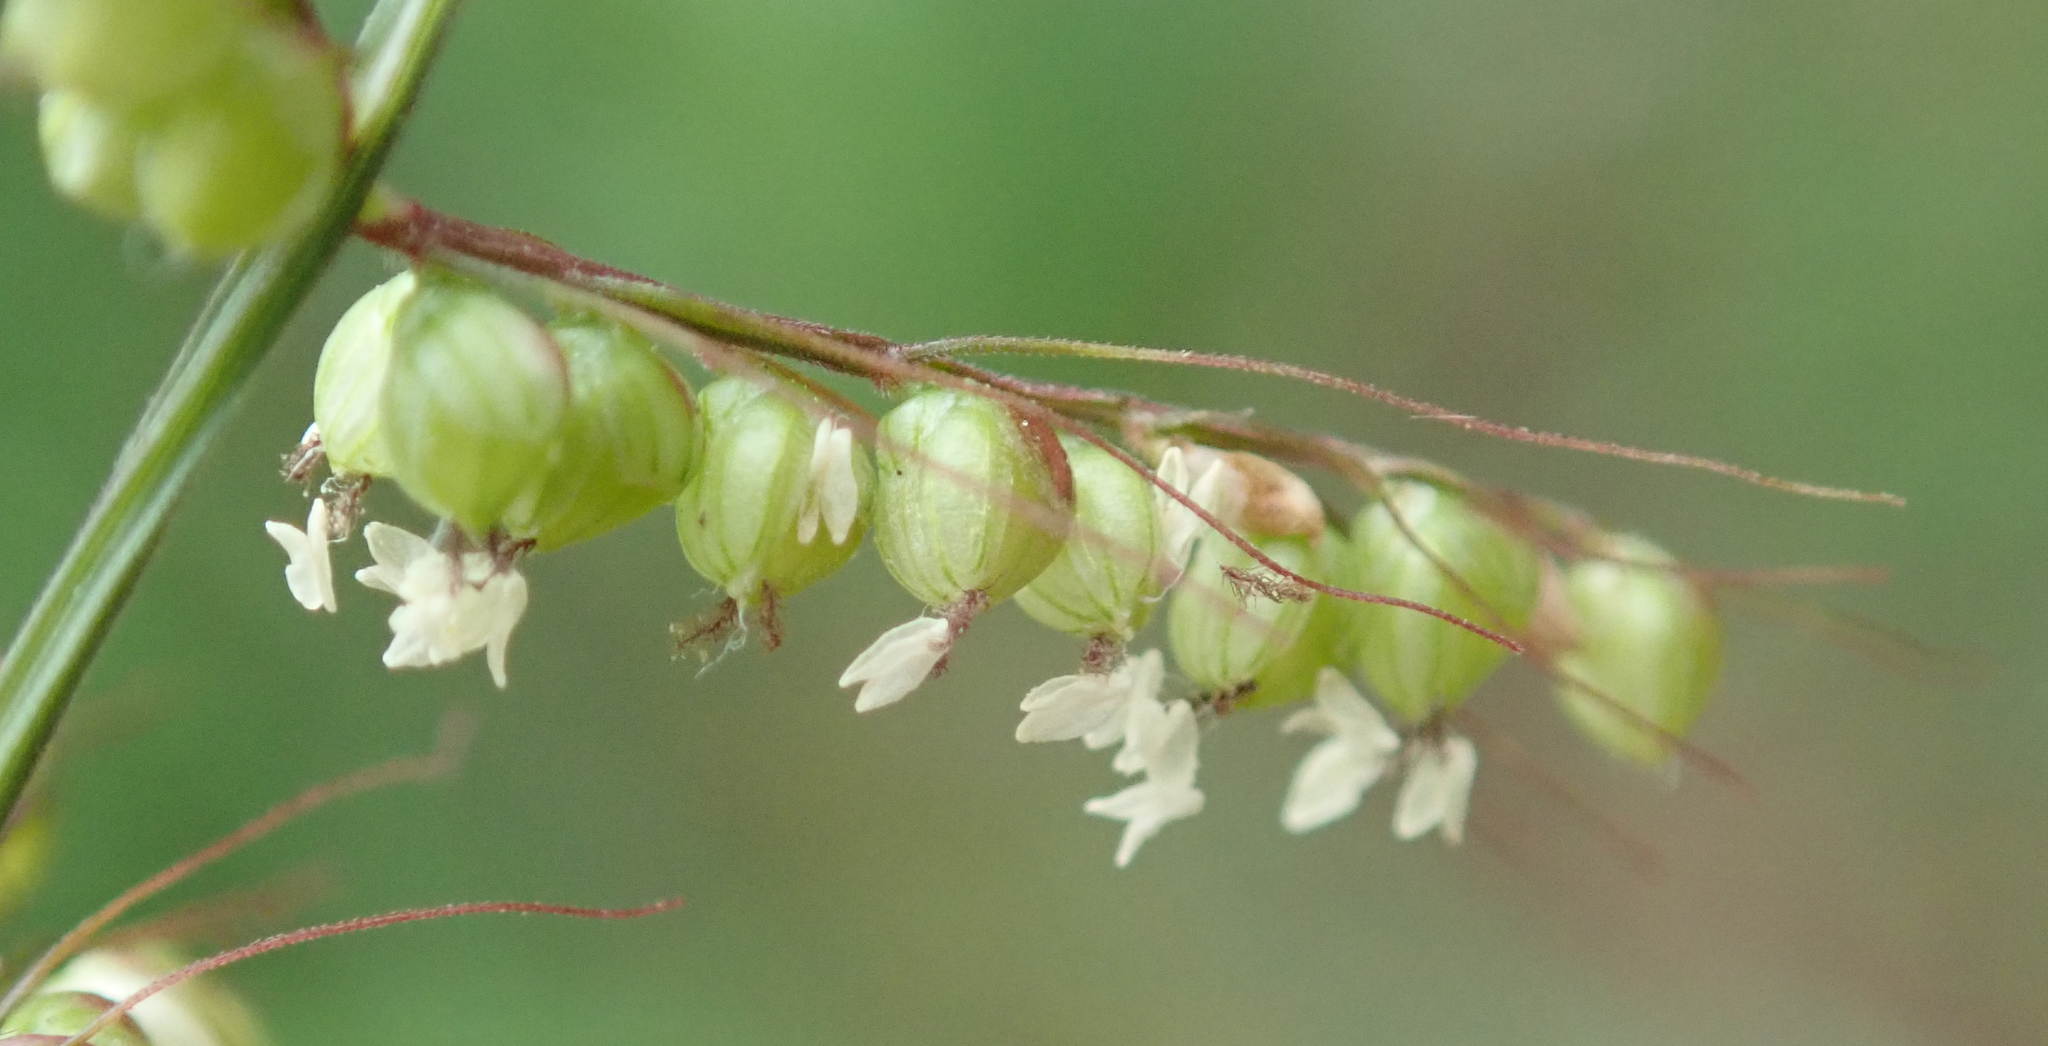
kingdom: Plantae
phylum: Tracheophyta
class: Liliopsida
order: Poales
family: Poaceae
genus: Setaria
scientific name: Setaria sagittifolia
